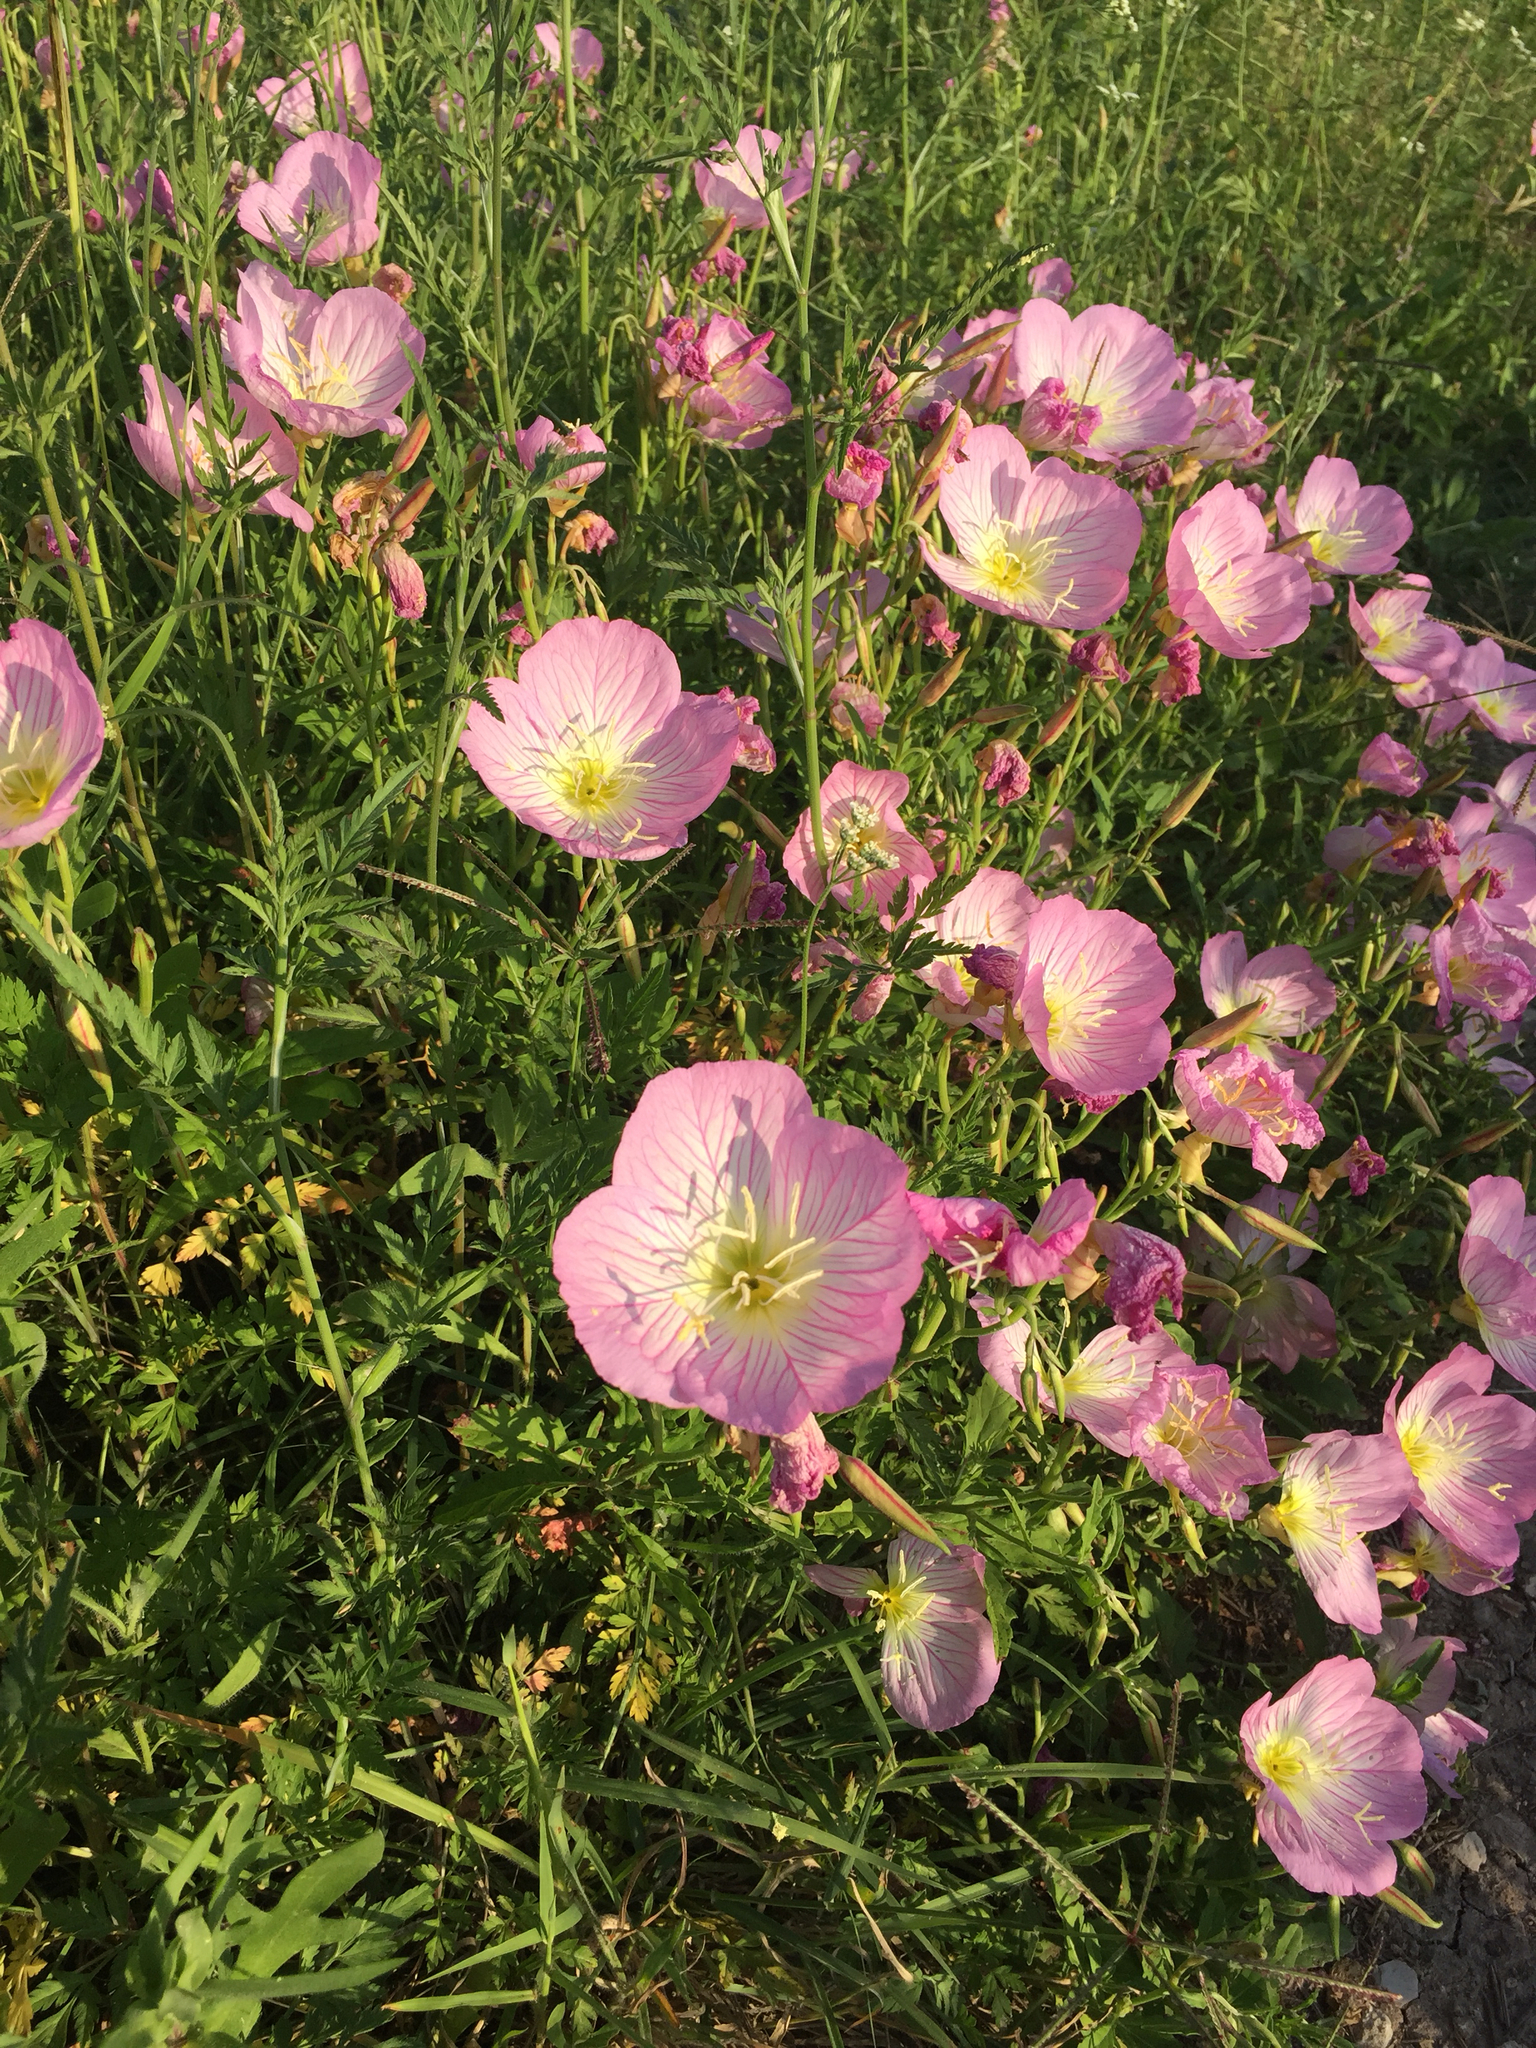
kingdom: Plantae
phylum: Tracheophyta
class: Magnoliopsida
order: Myrtales
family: Onagraceae
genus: Oenothera
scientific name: Oenothera speciosa
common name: White evening-primrose
